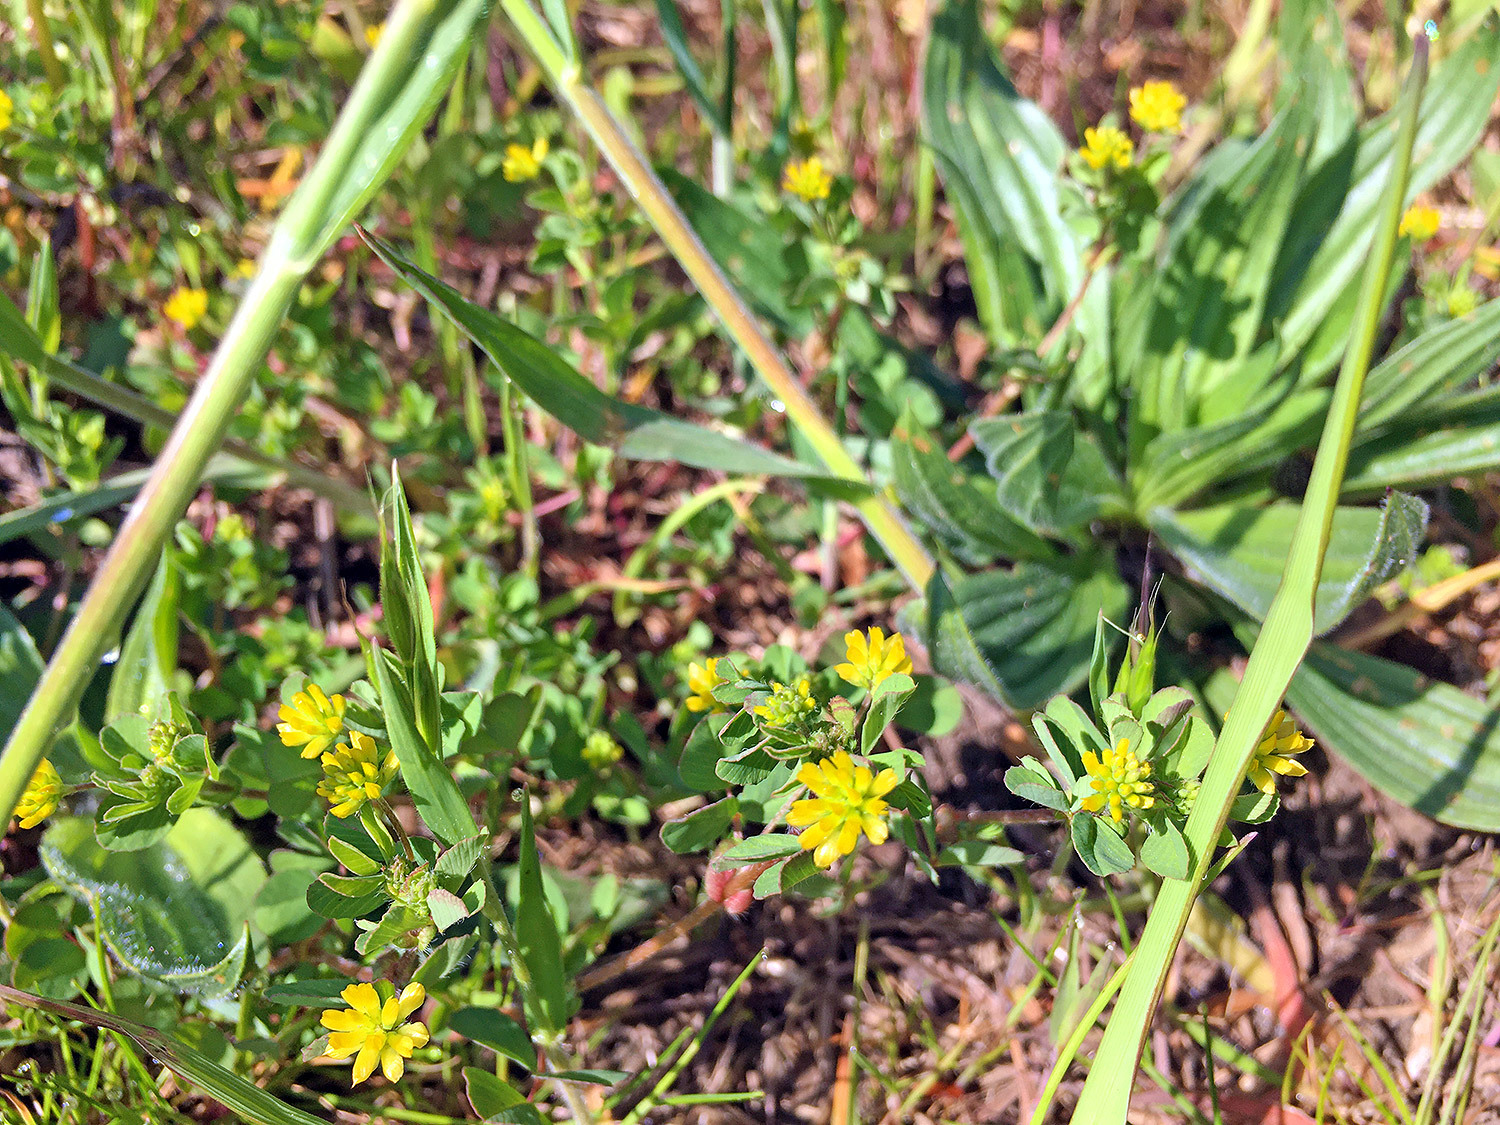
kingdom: Plantae
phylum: Tracheophyta
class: Magnoliopsida
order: Fabales
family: Fabaceae
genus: Trifolium
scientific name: Trifolium dubium
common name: Suckling clover
